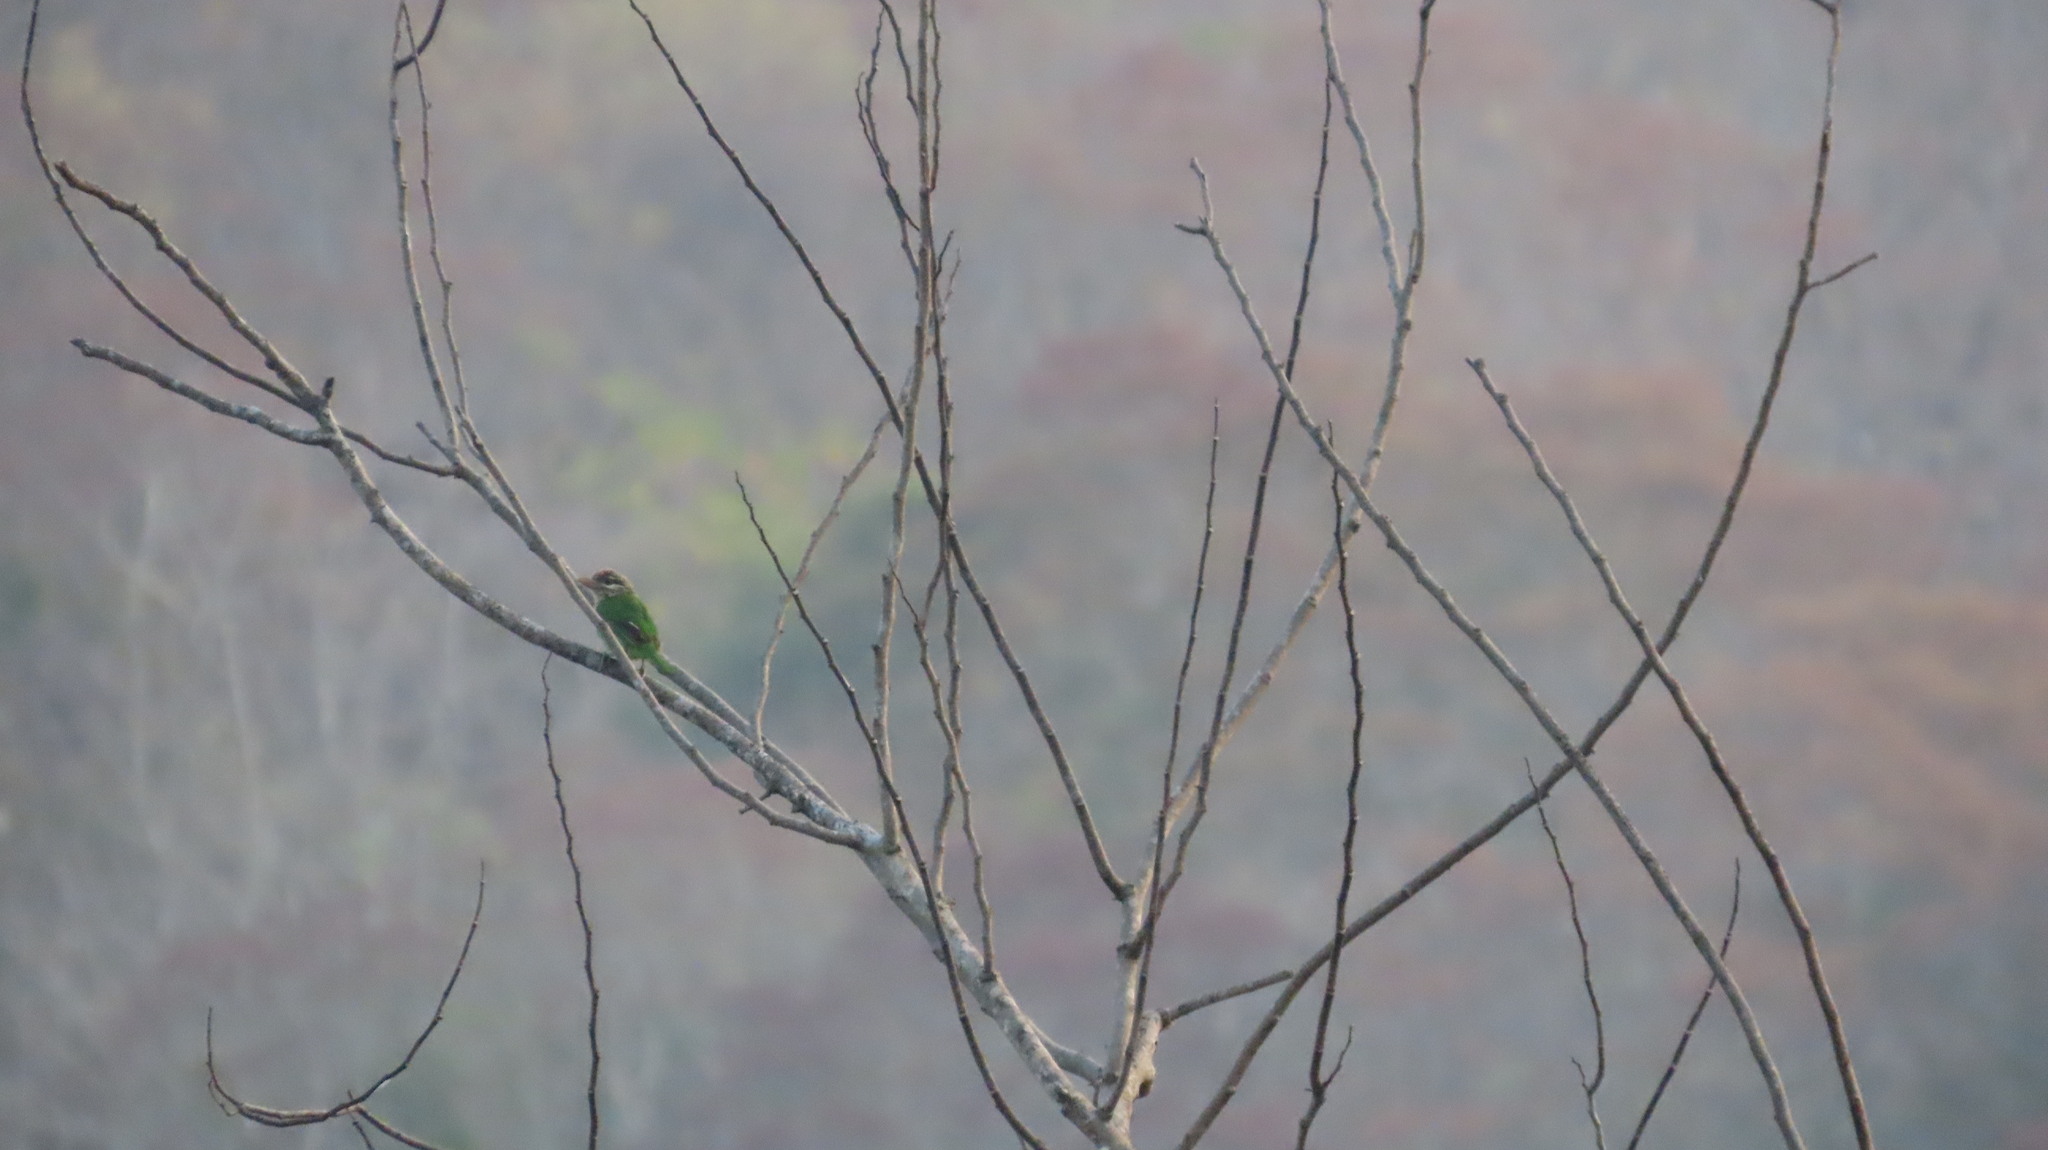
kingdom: Animalia
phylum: Chordata
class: Aves
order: Piciformes
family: Megalaimidae
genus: Psilopogon
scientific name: Psilopogon viridis
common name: White-cheeked barbet
